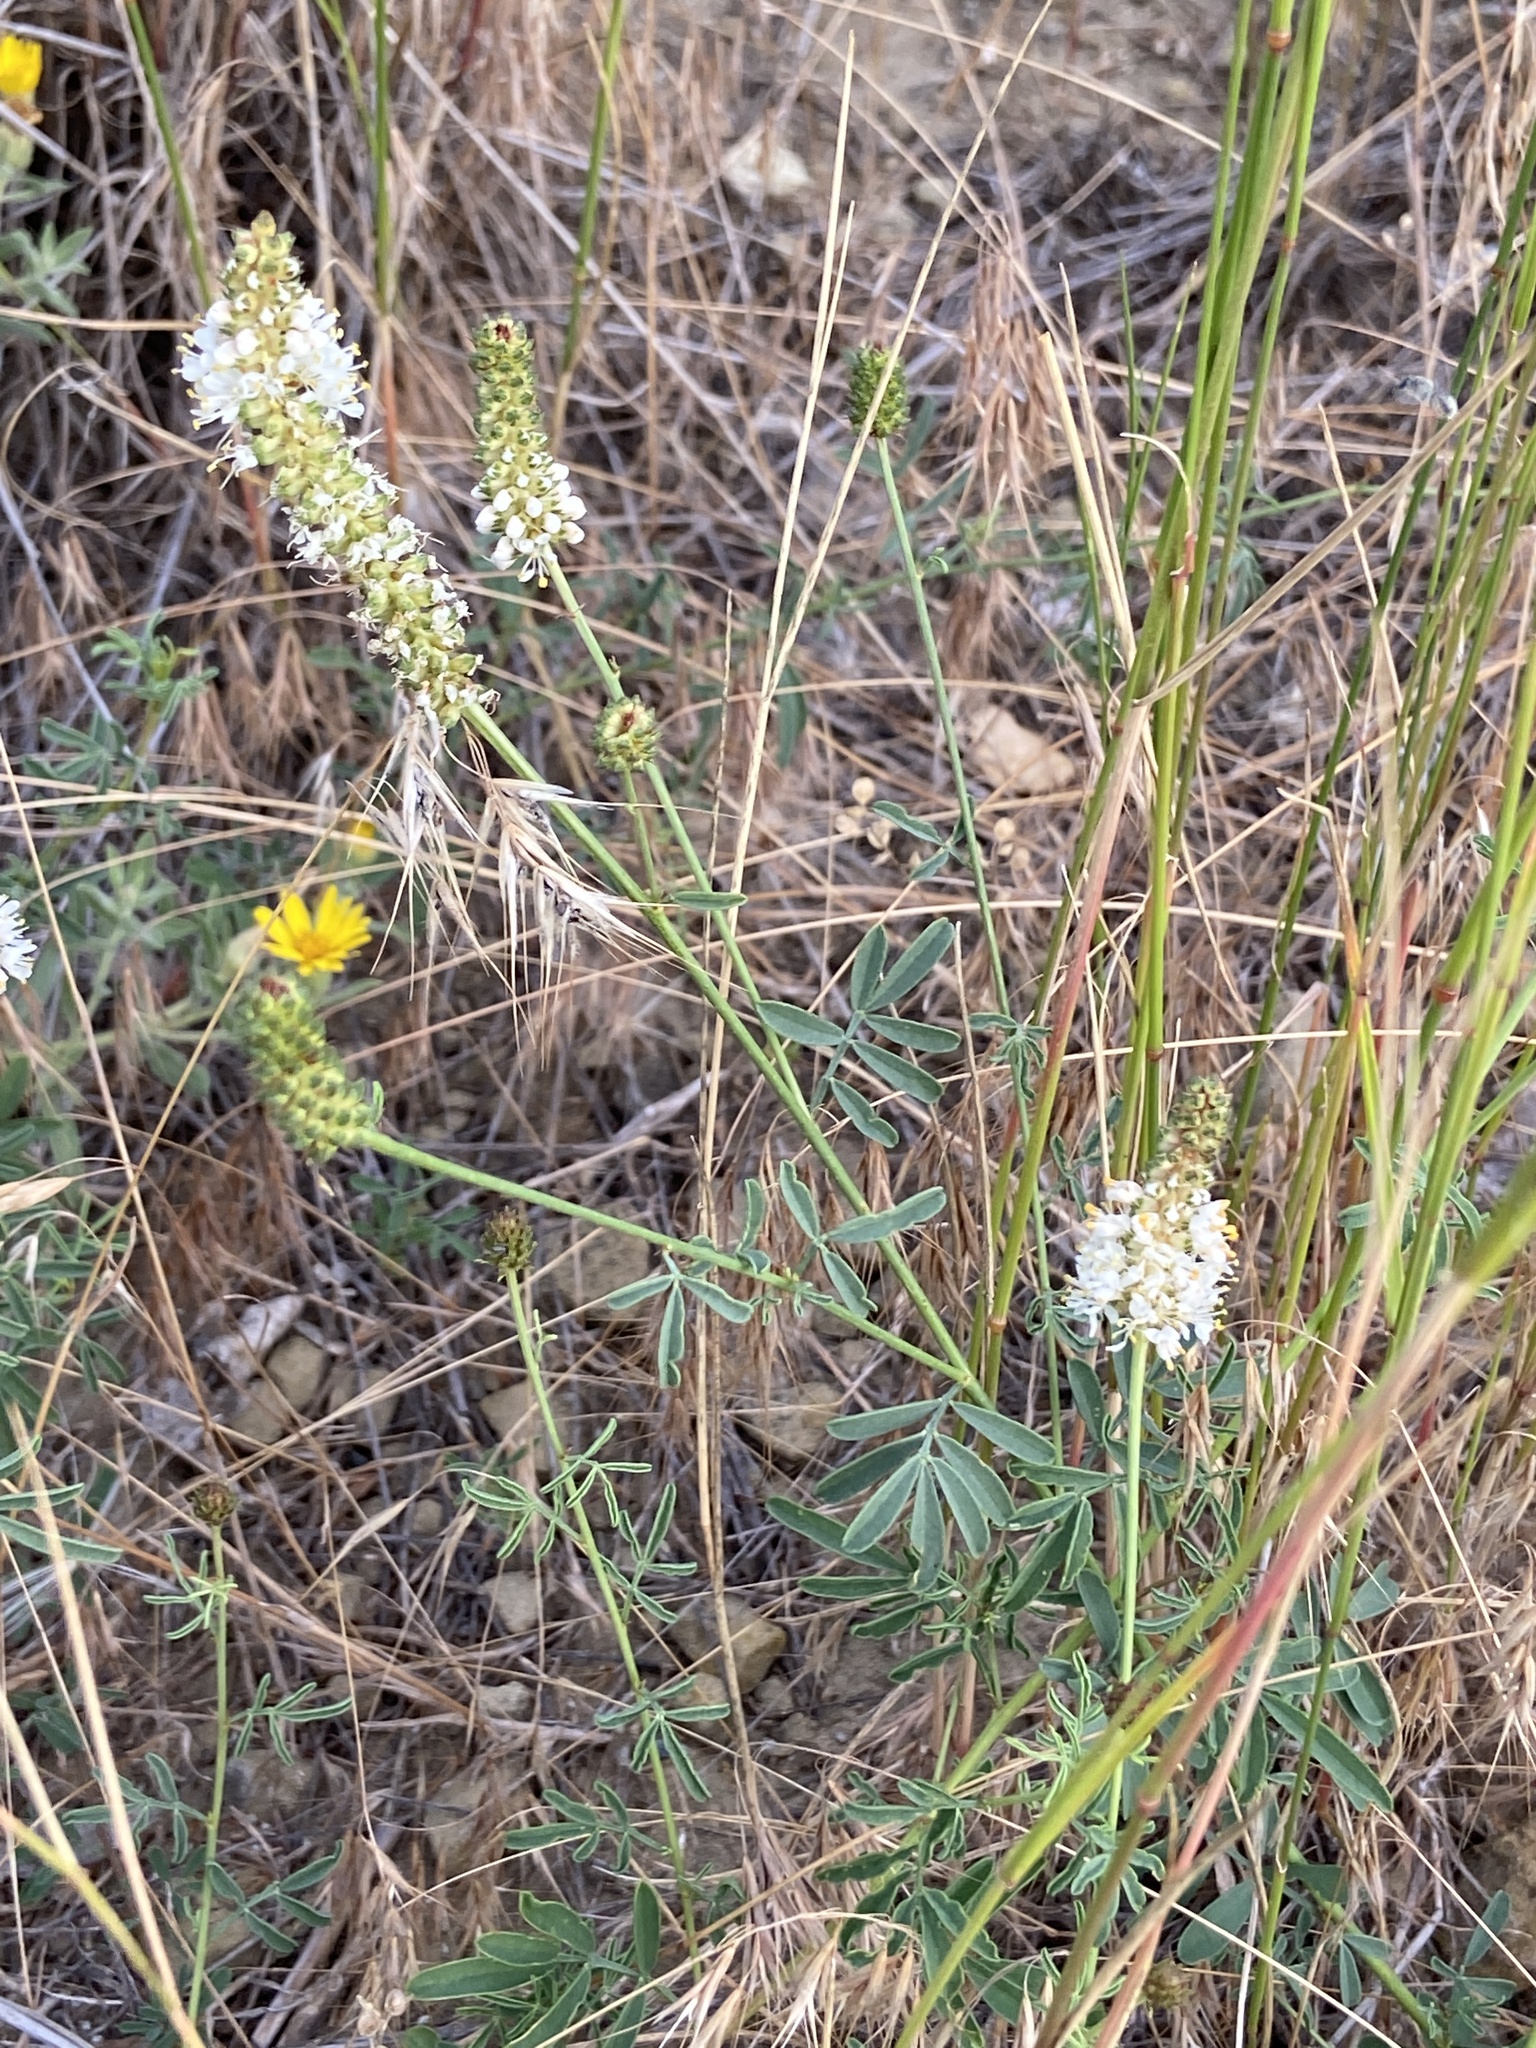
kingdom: Plantae
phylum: Tracheophyta
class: Magnoliopsida
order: Fabales
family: Fabaceae
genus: Dalea
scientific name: Dalea candida
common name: White prairie-clover
